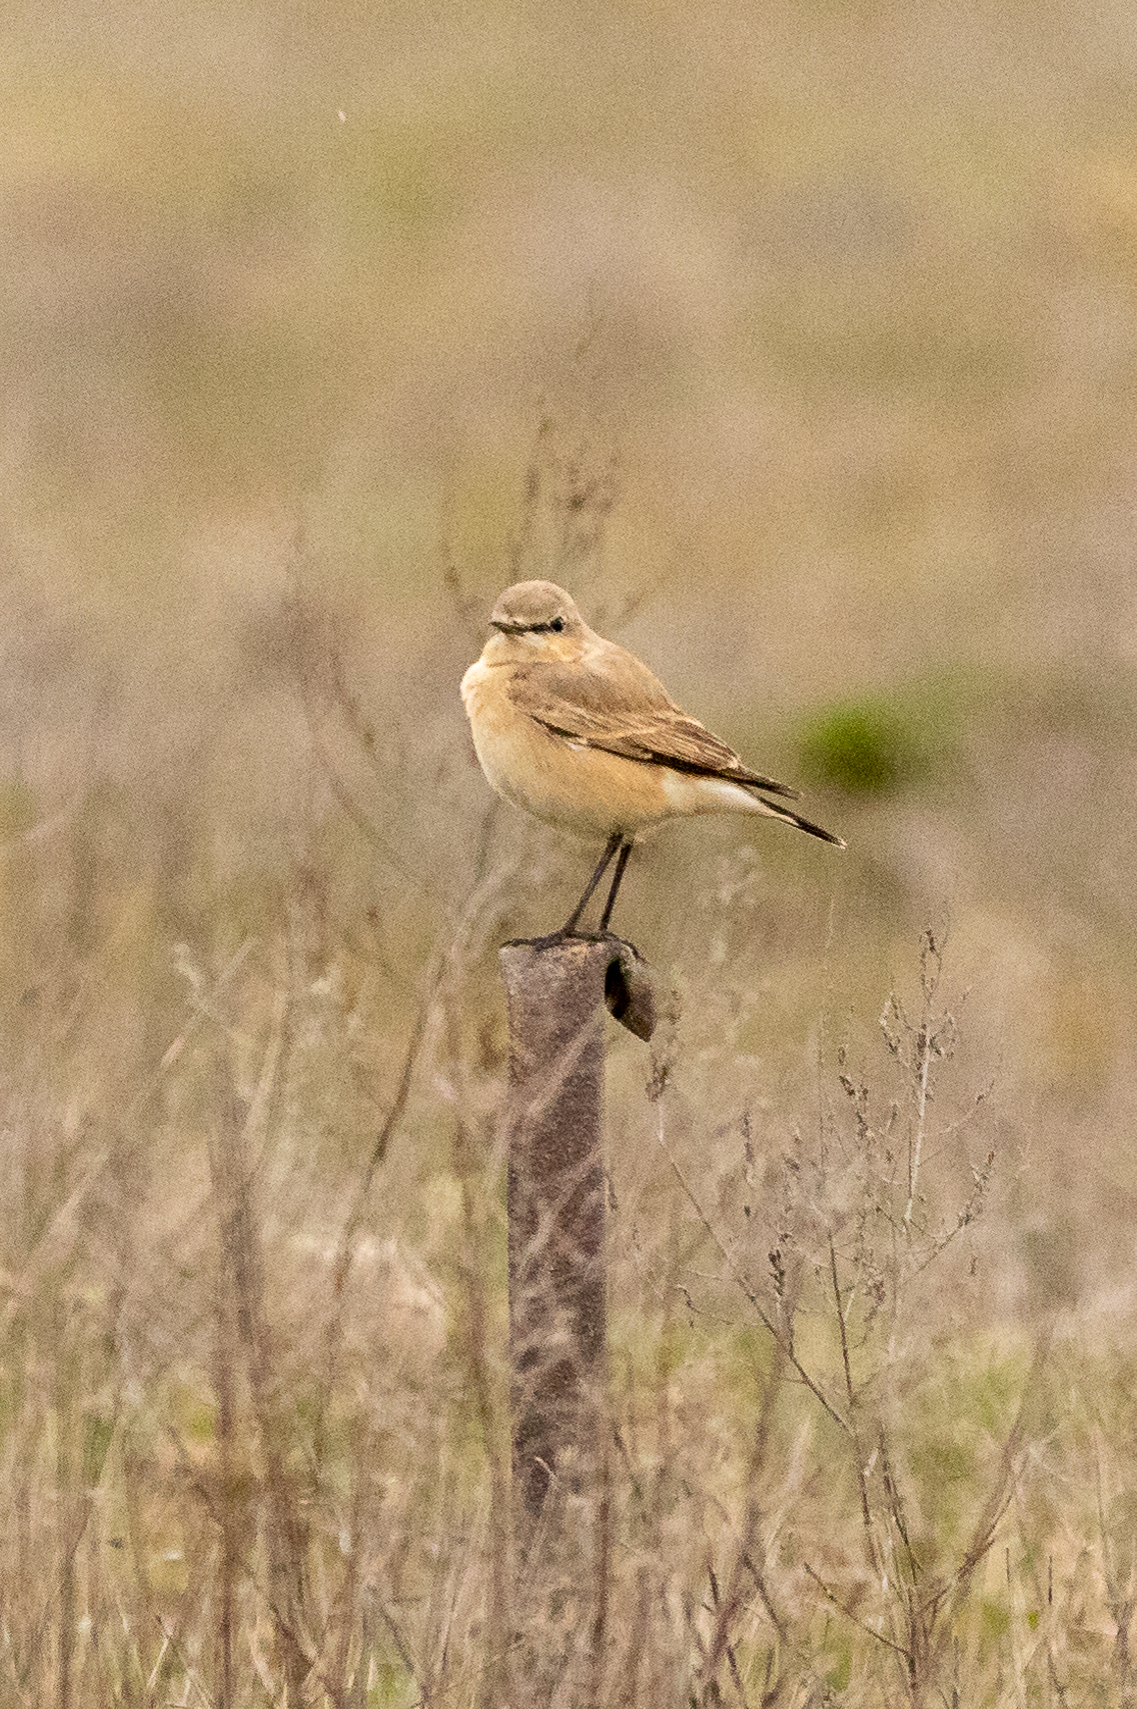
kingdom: Animalia
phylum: Chordata
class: Aves
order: Passeriformes
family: Muscicapidae
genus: Oenanthe
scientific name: Oenanthe isabellina
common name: Isabelline wheatear
